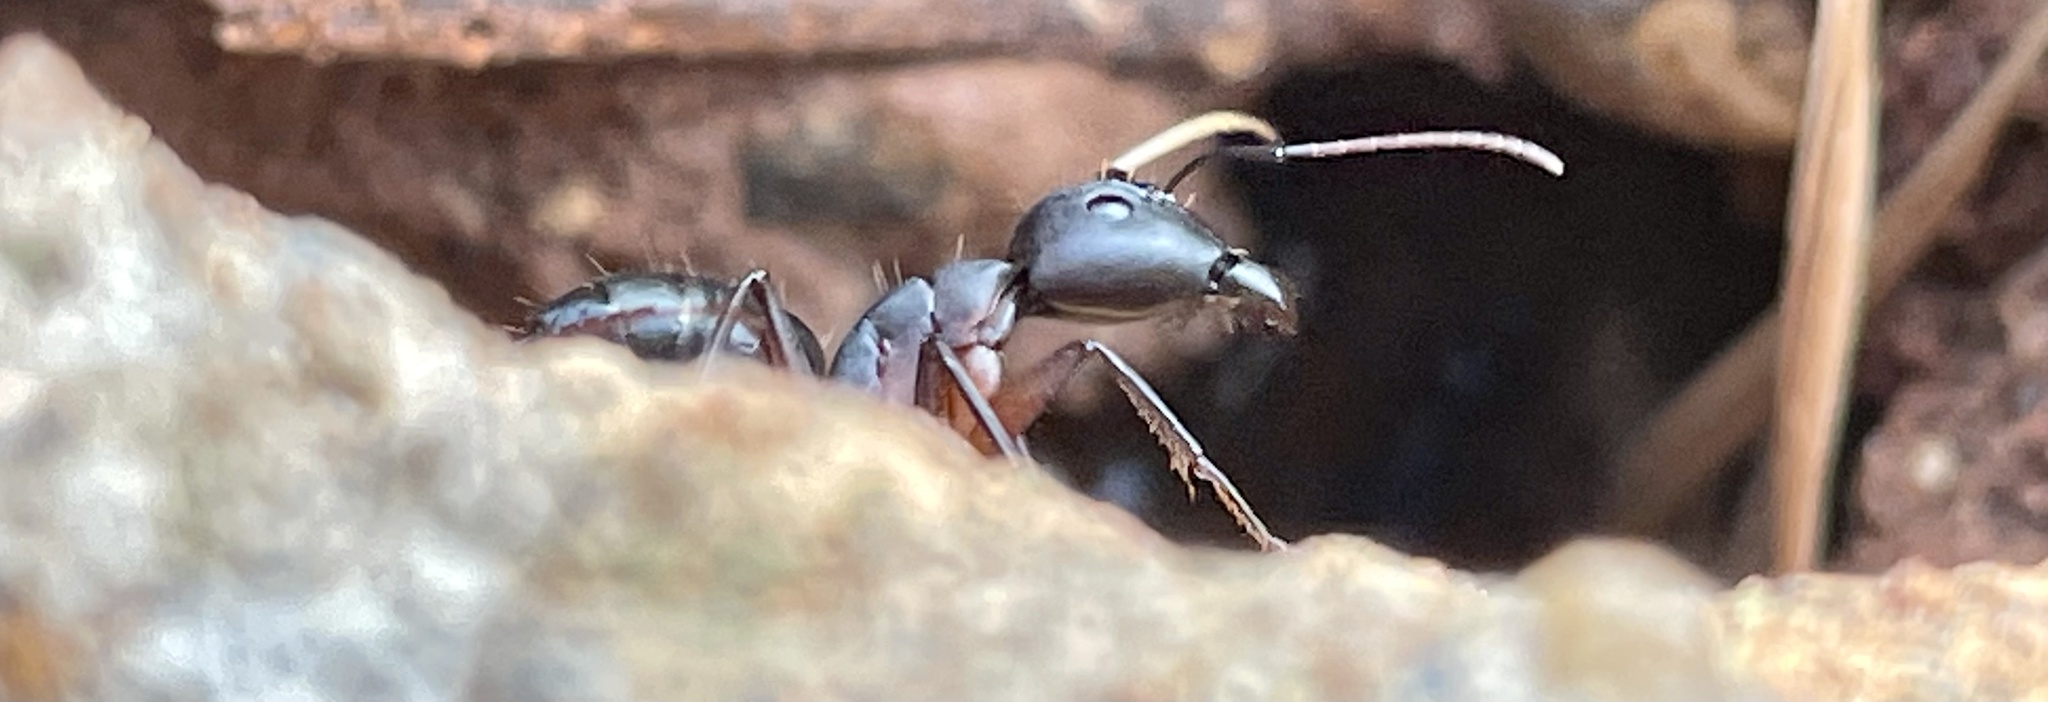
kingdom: Animalia
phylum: Arthropoda
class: Insecta
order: Hymenoptera
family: Formicidae
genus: Camponotus
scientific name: Camponotus compressus
